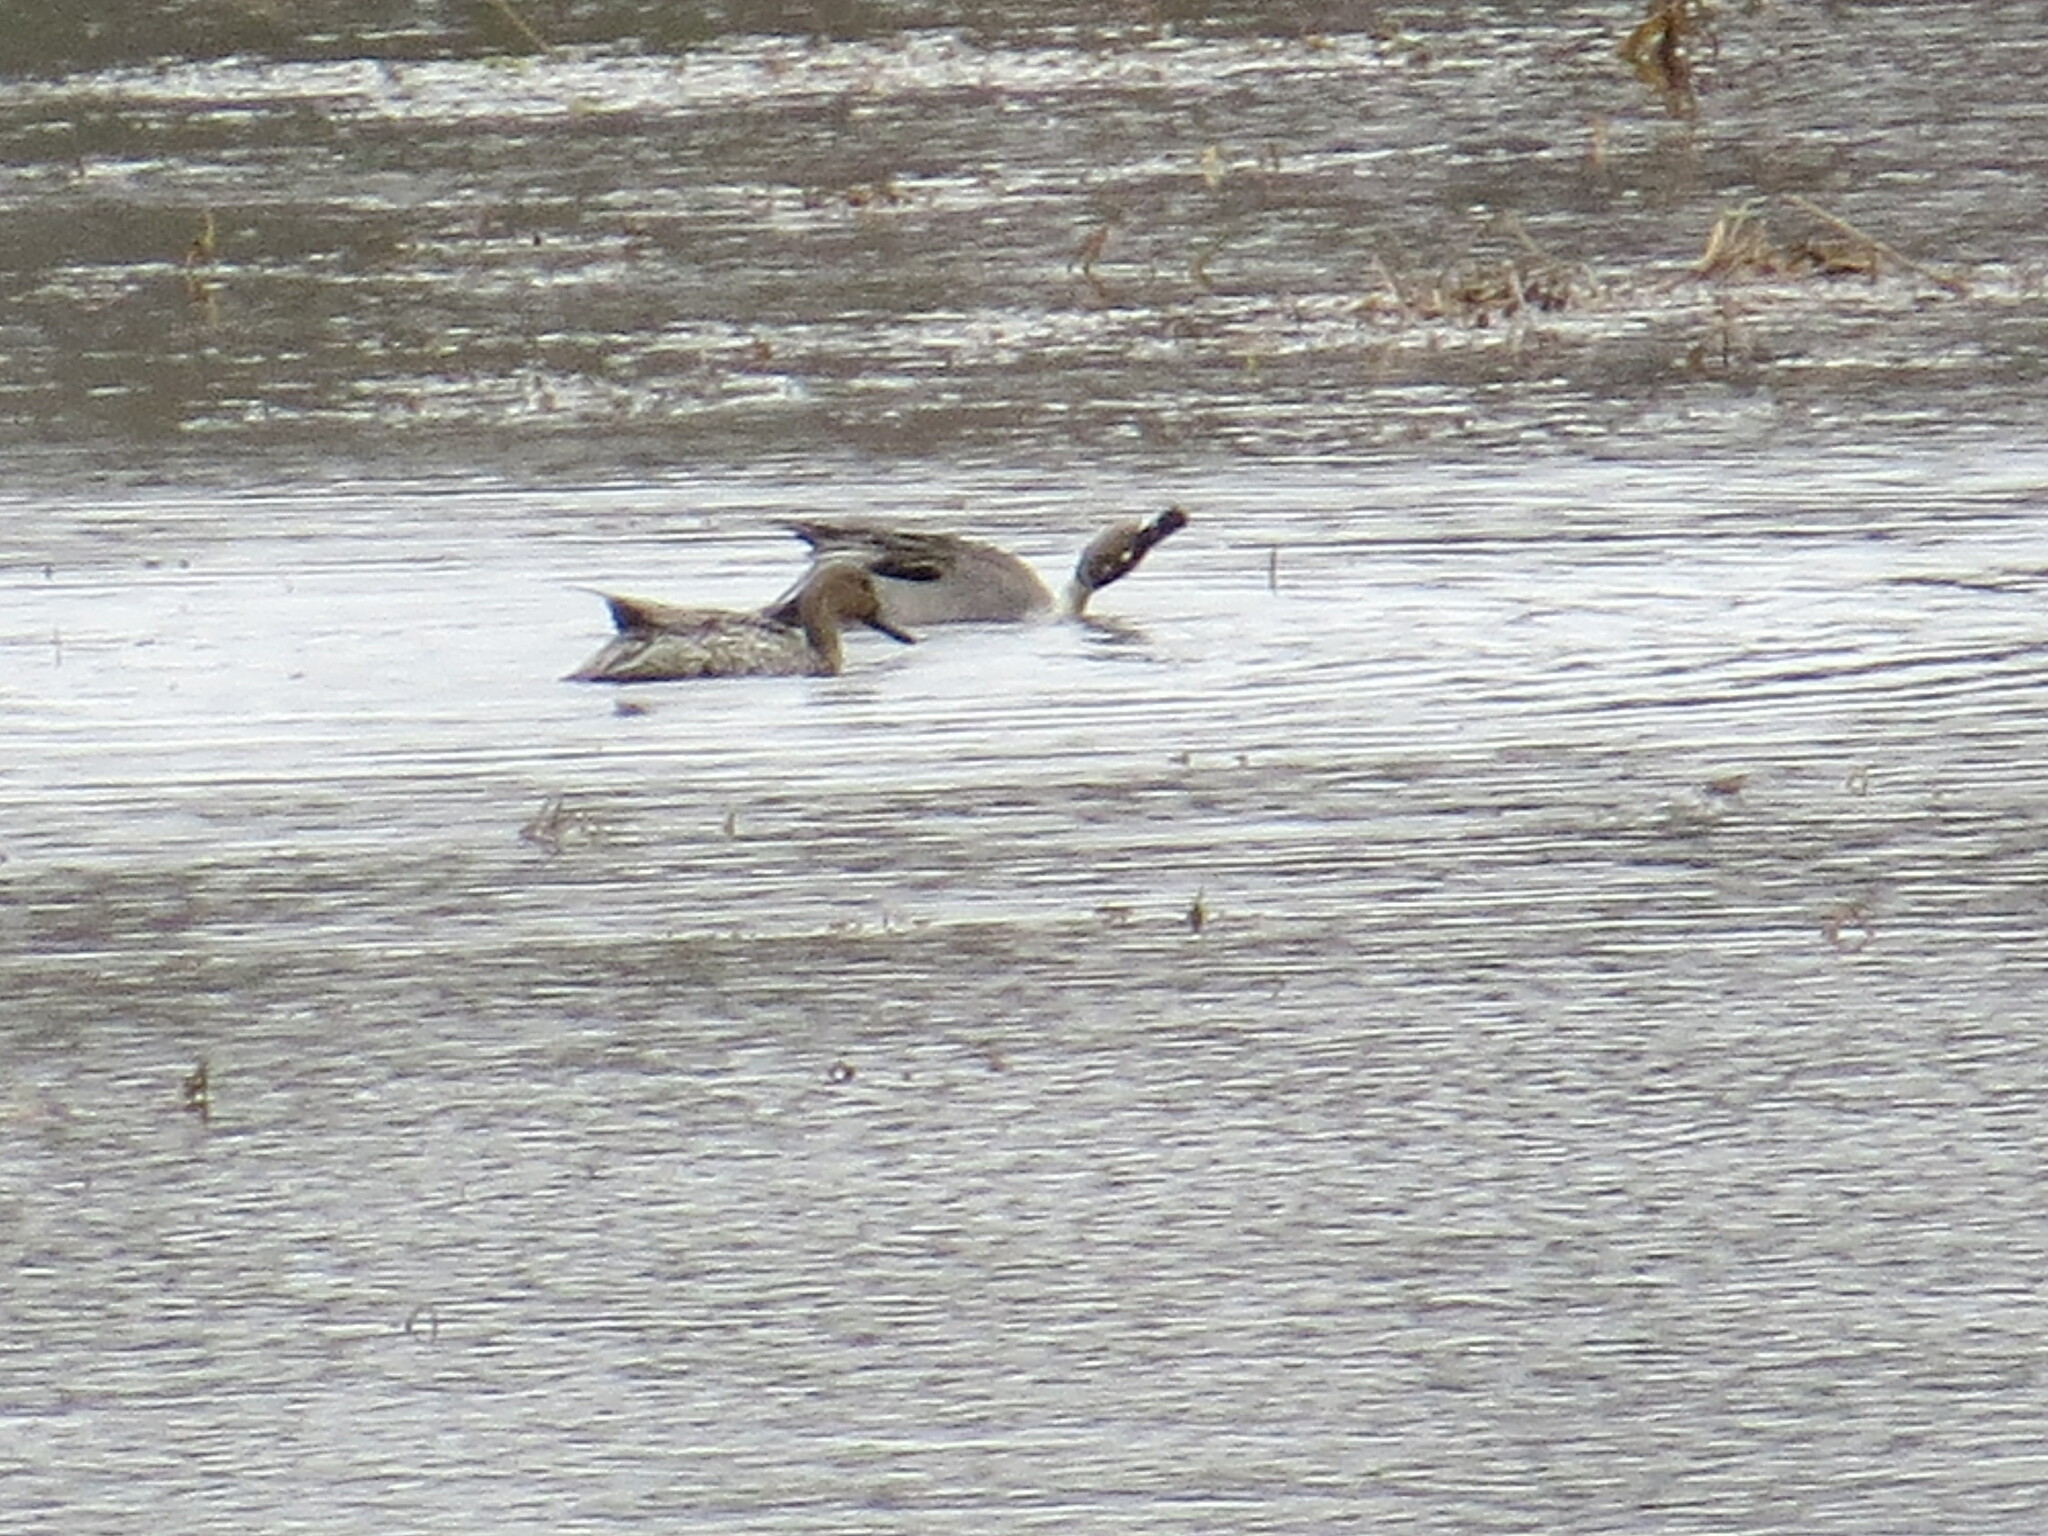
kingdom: Animalia
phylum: Chordata
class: Aves
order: Anseriformes
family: Anatidae
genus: Anas
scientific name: Anas acuta
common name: Northern pintail
